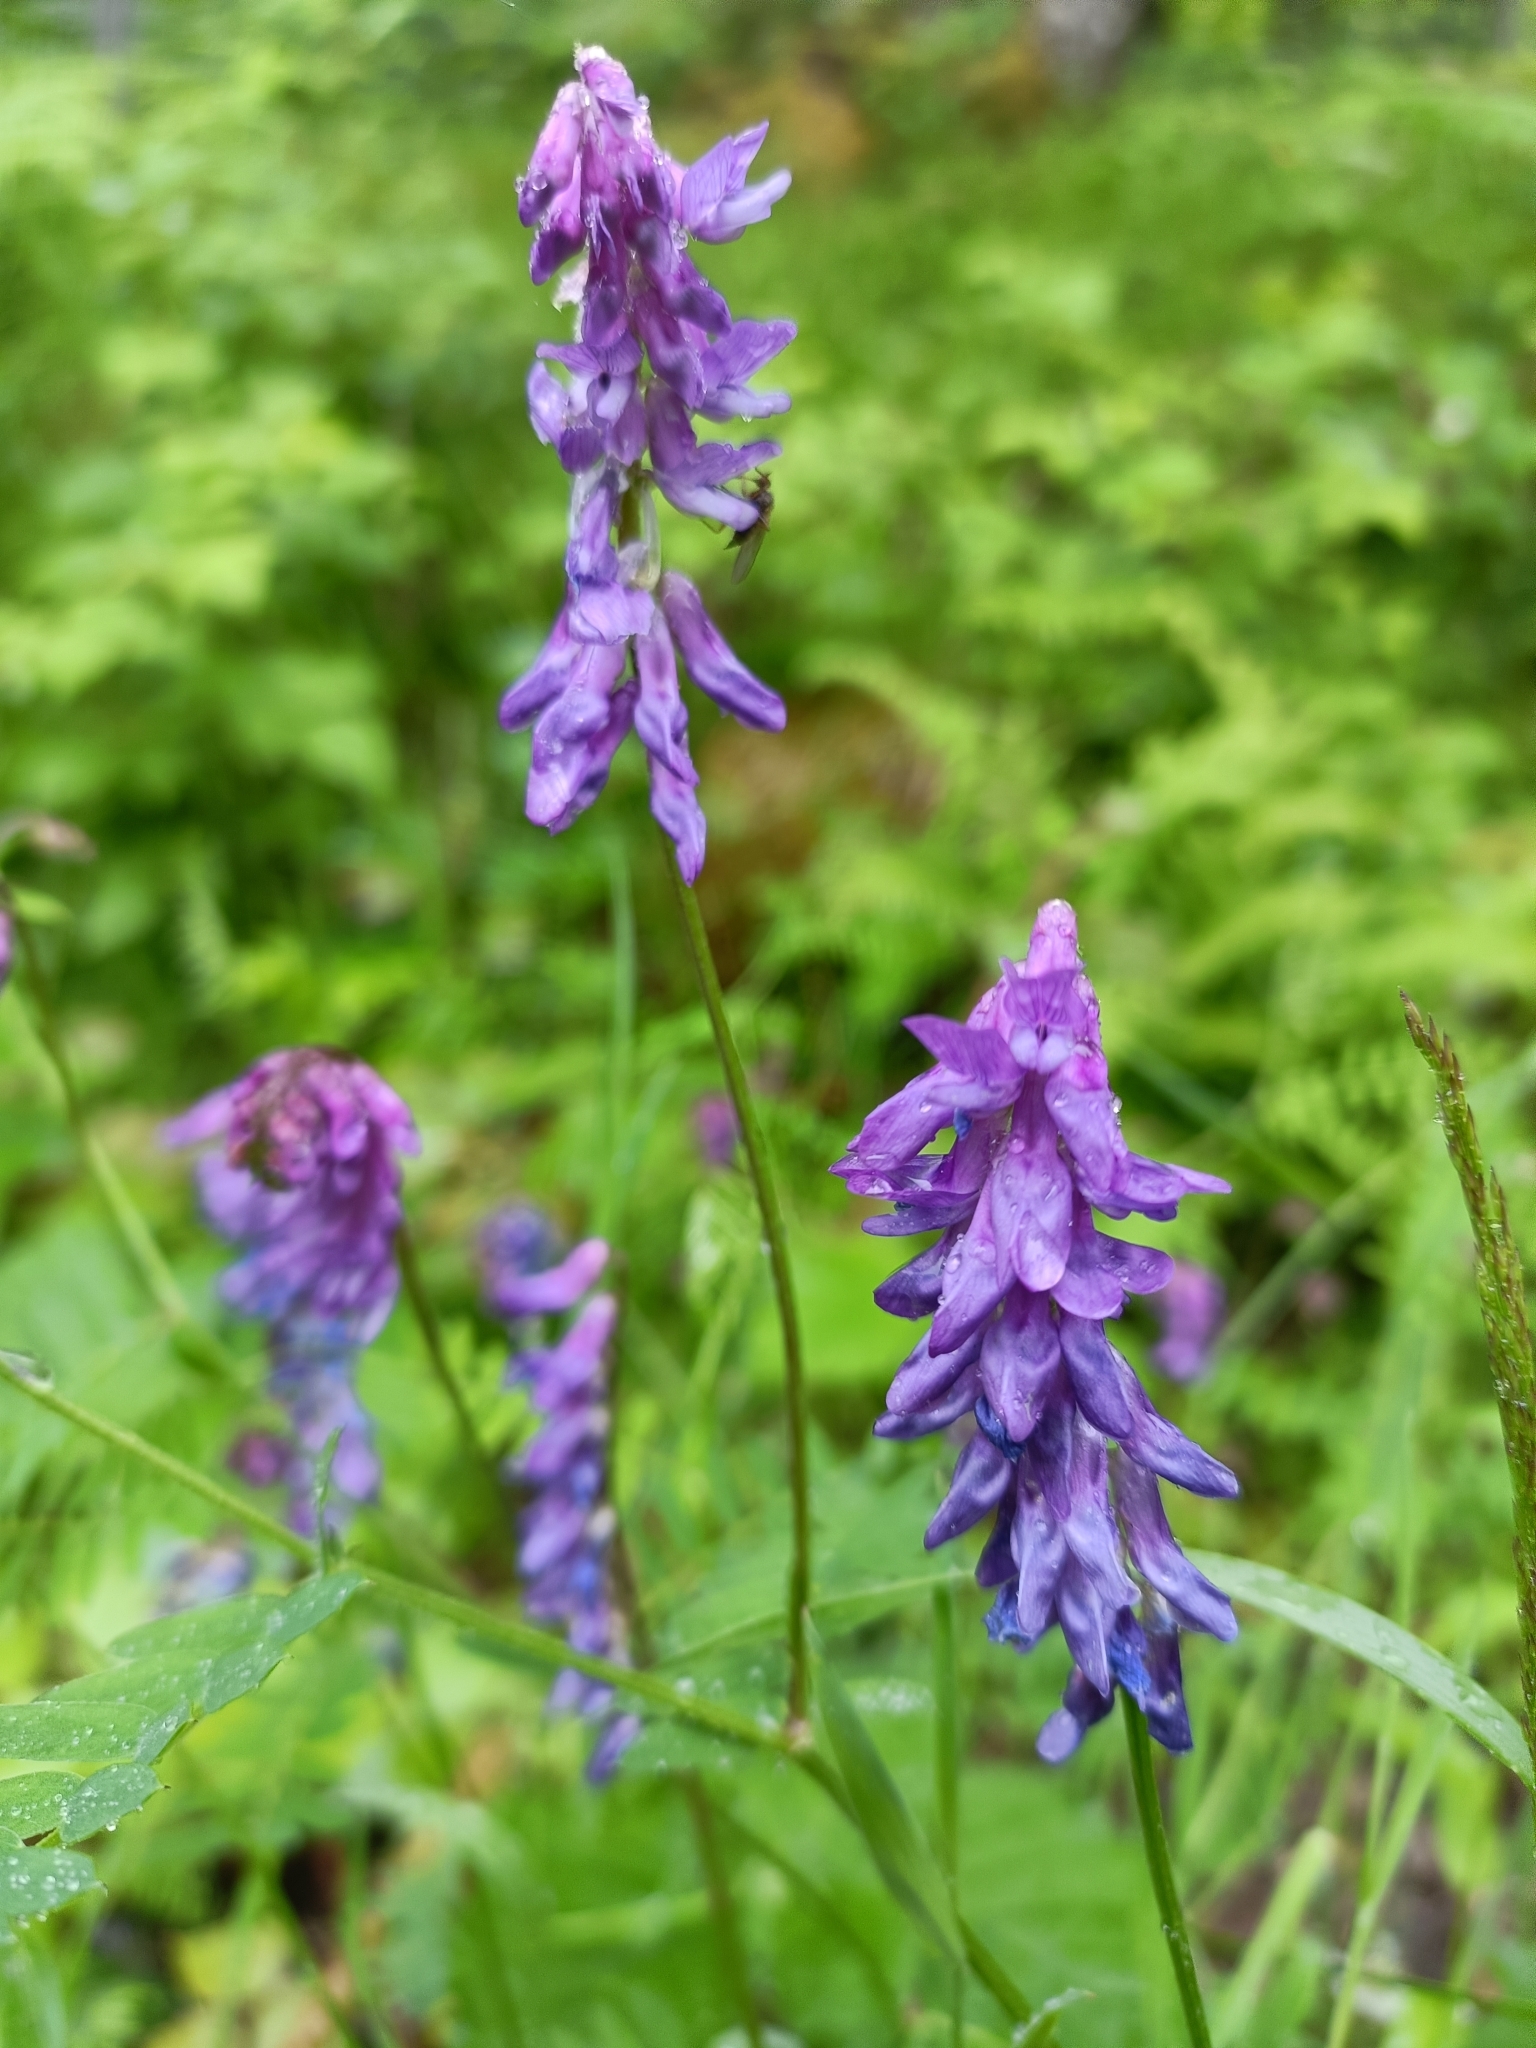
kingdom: Plantae
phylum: Tracheophyta
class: Magnoliopsida
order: Fabales
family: Fabaceae
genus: Vicia
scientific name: Vicia cracca
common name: Bird vetch
